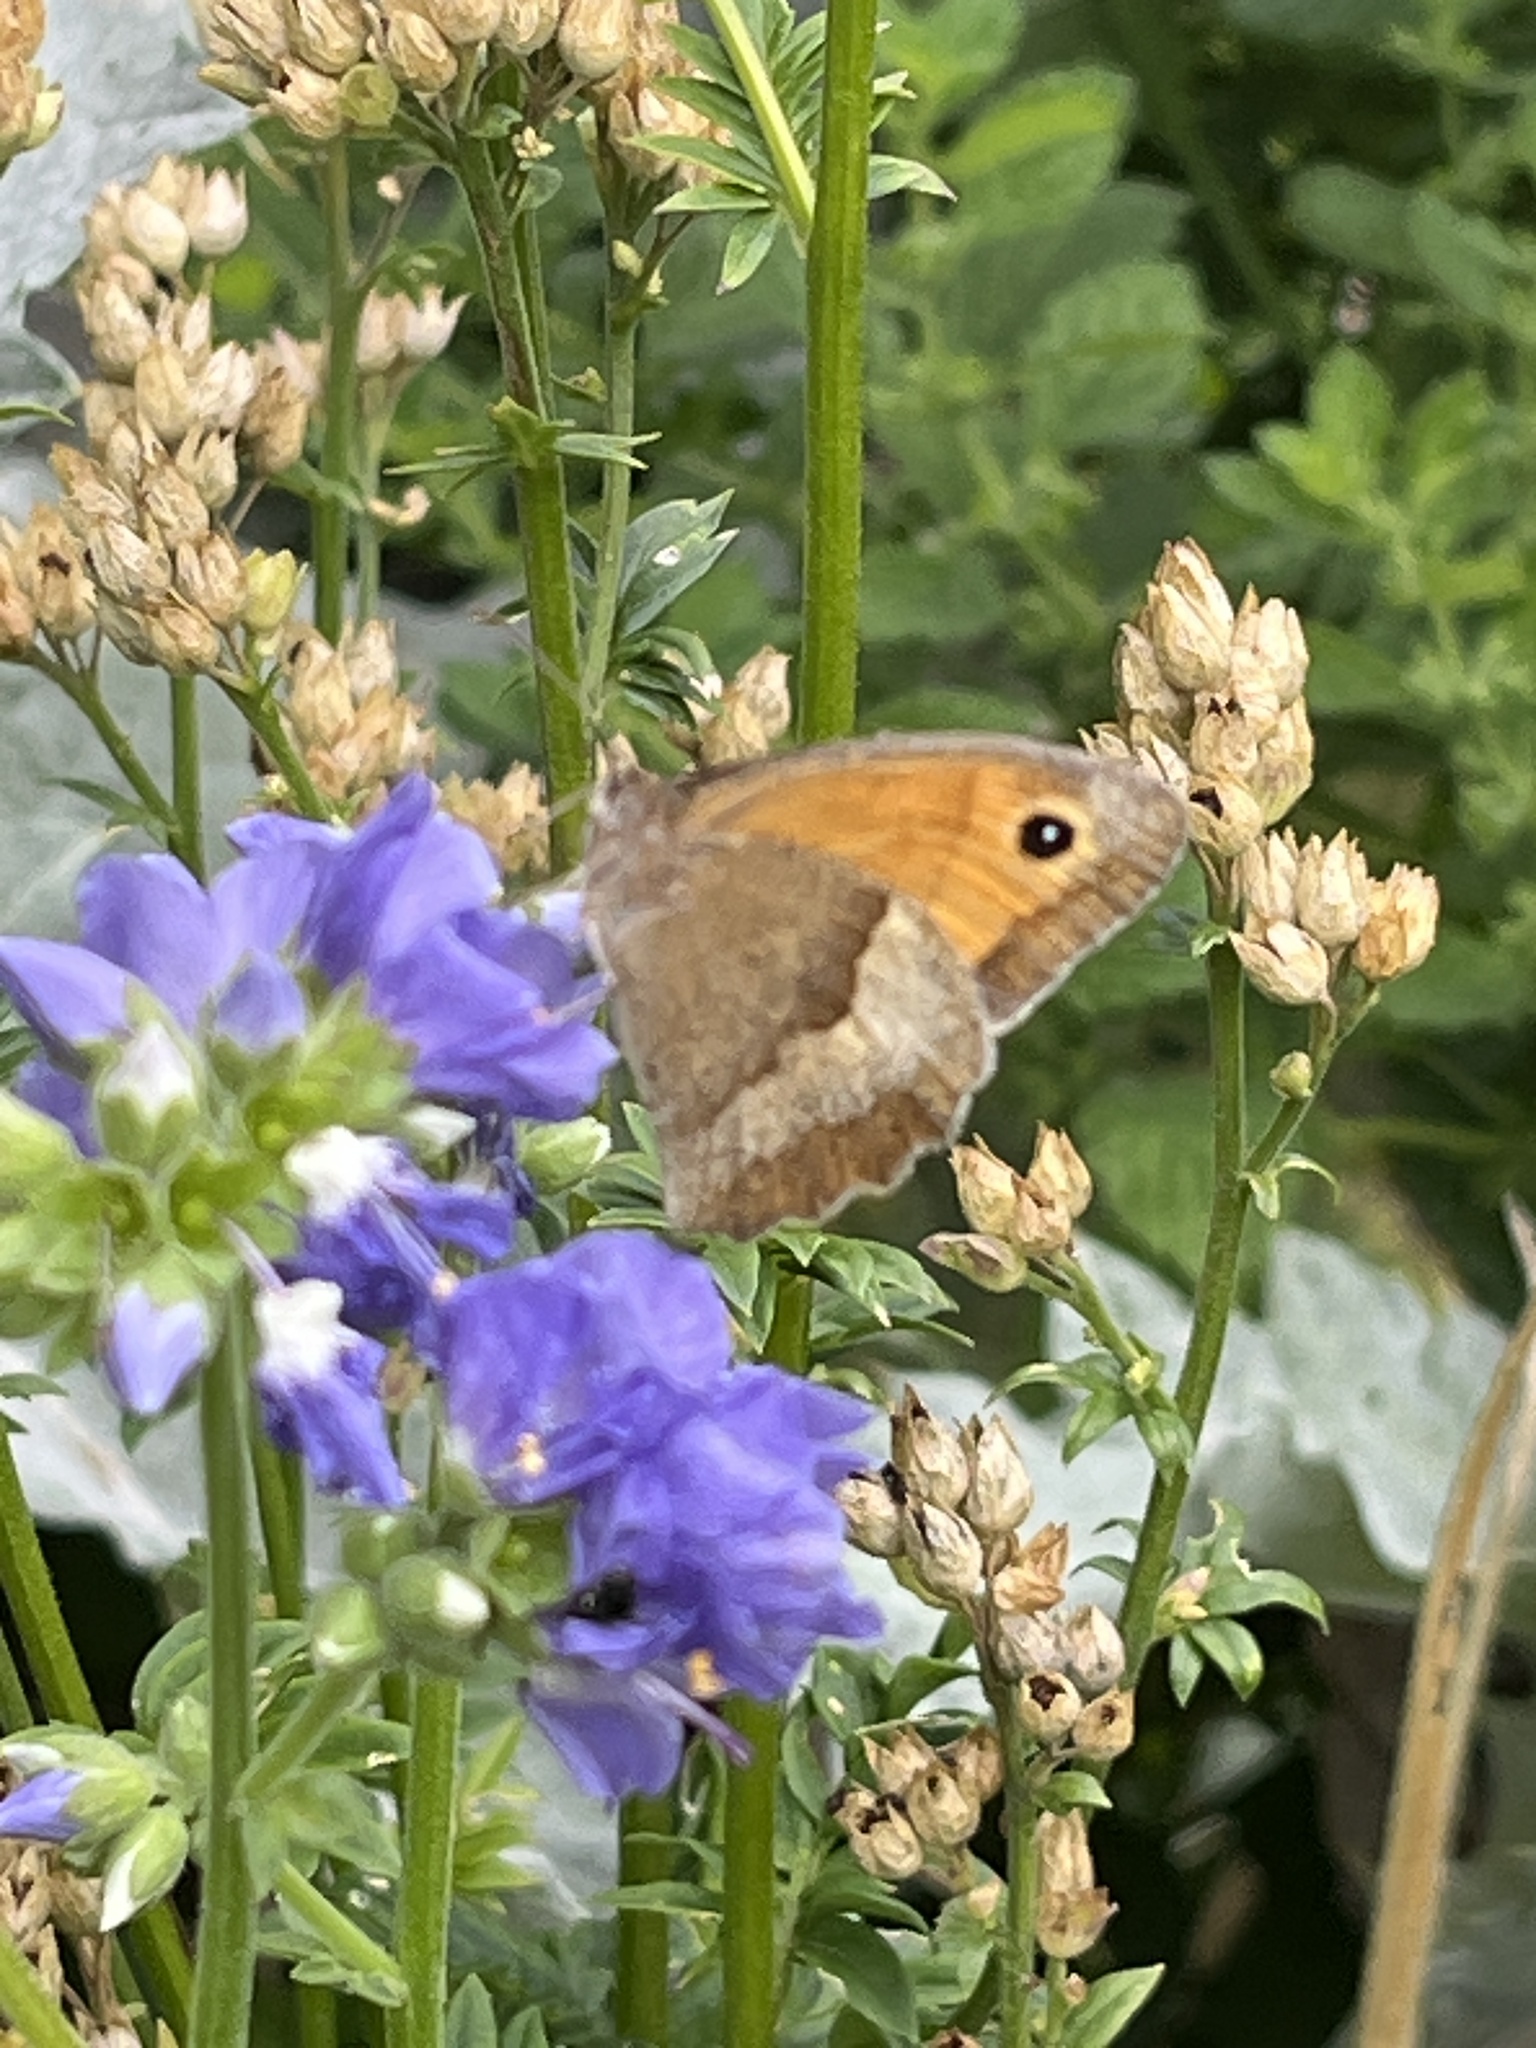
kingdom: Animalia
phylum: Arthropoda
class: Insecta
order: Lepidoptera
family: Nymphalidae
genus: Maniola
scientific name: Maniola jurtina
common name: Meadow brown
